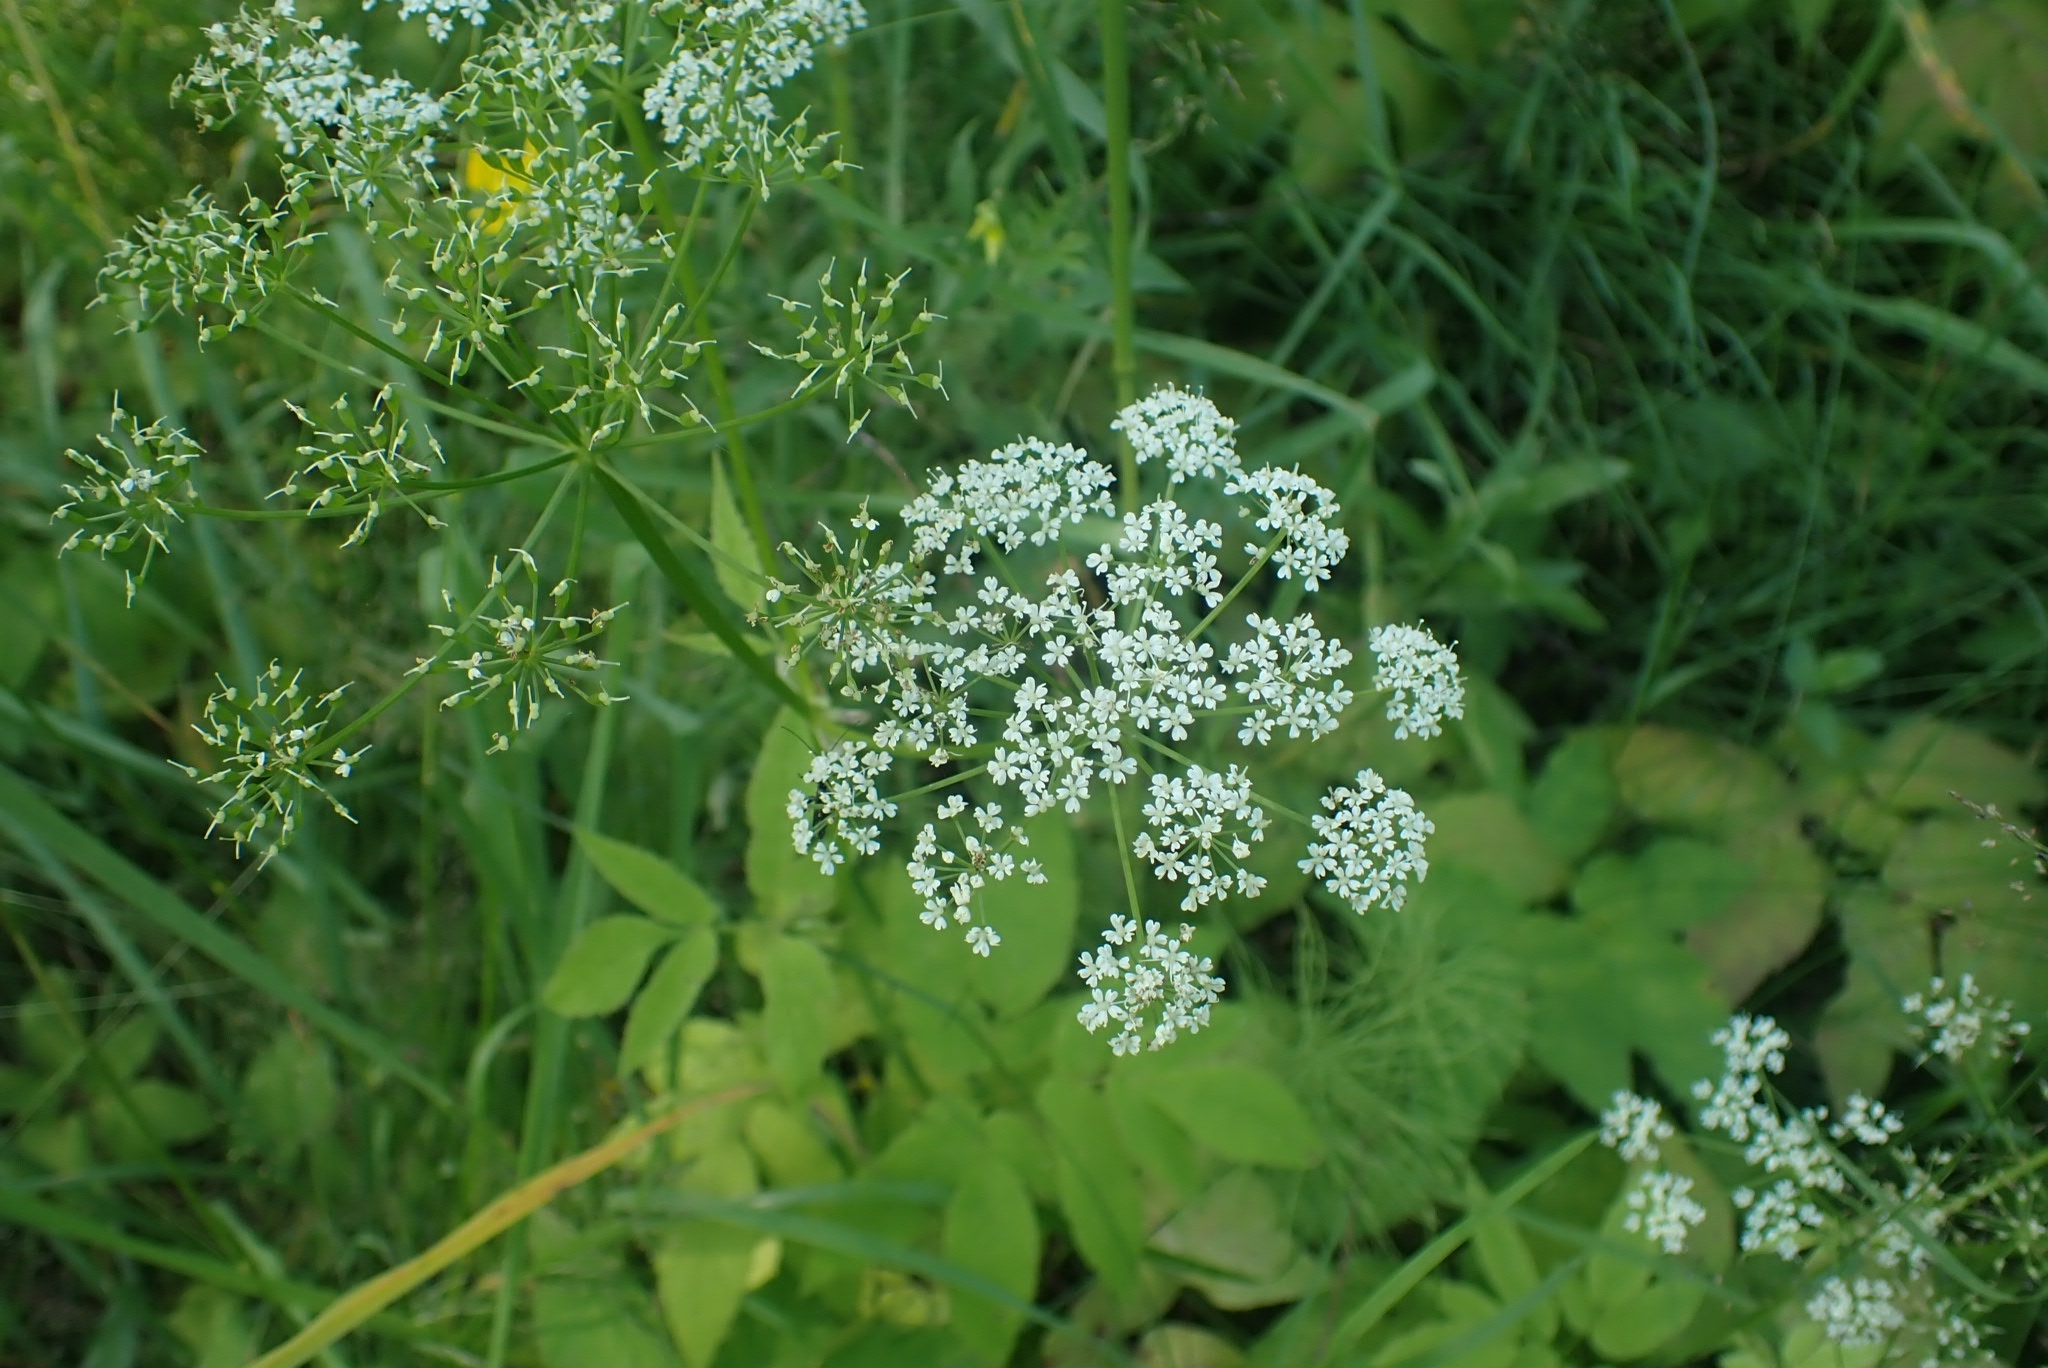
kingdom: Plantae
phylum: Tracheophyta
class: Magnoliopsida
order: Apiales
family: Apiaceae
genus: Aegopodium
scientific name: Aegopodium podagraria
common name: Ground-elder
